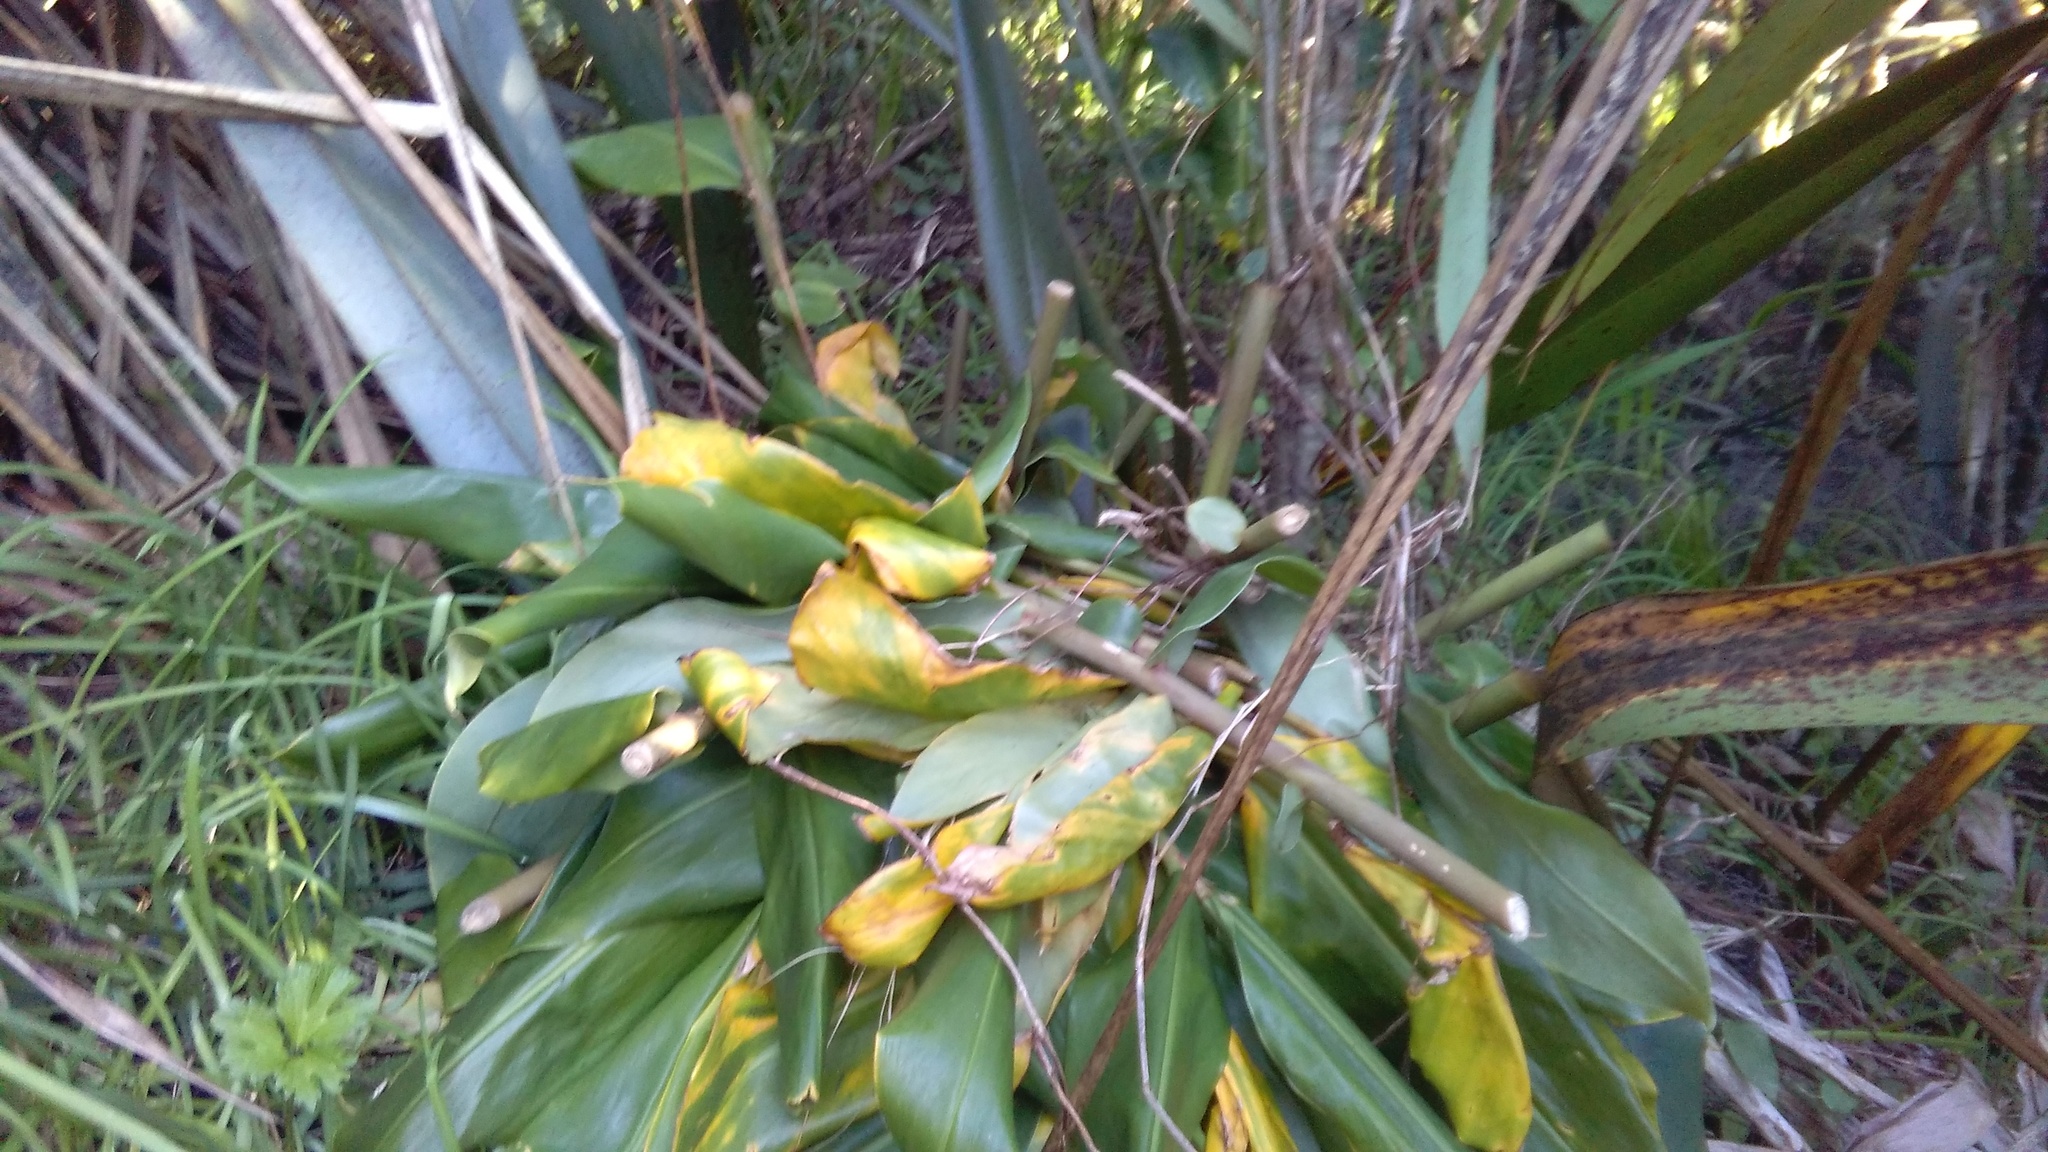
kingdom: Plantae
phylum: Tracheophyta
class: Liliopsida
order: Zingiberales
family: Zingiberaceae
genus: Hedychium
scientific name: Hedychium gardnerianum
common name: Himalayan ginger
